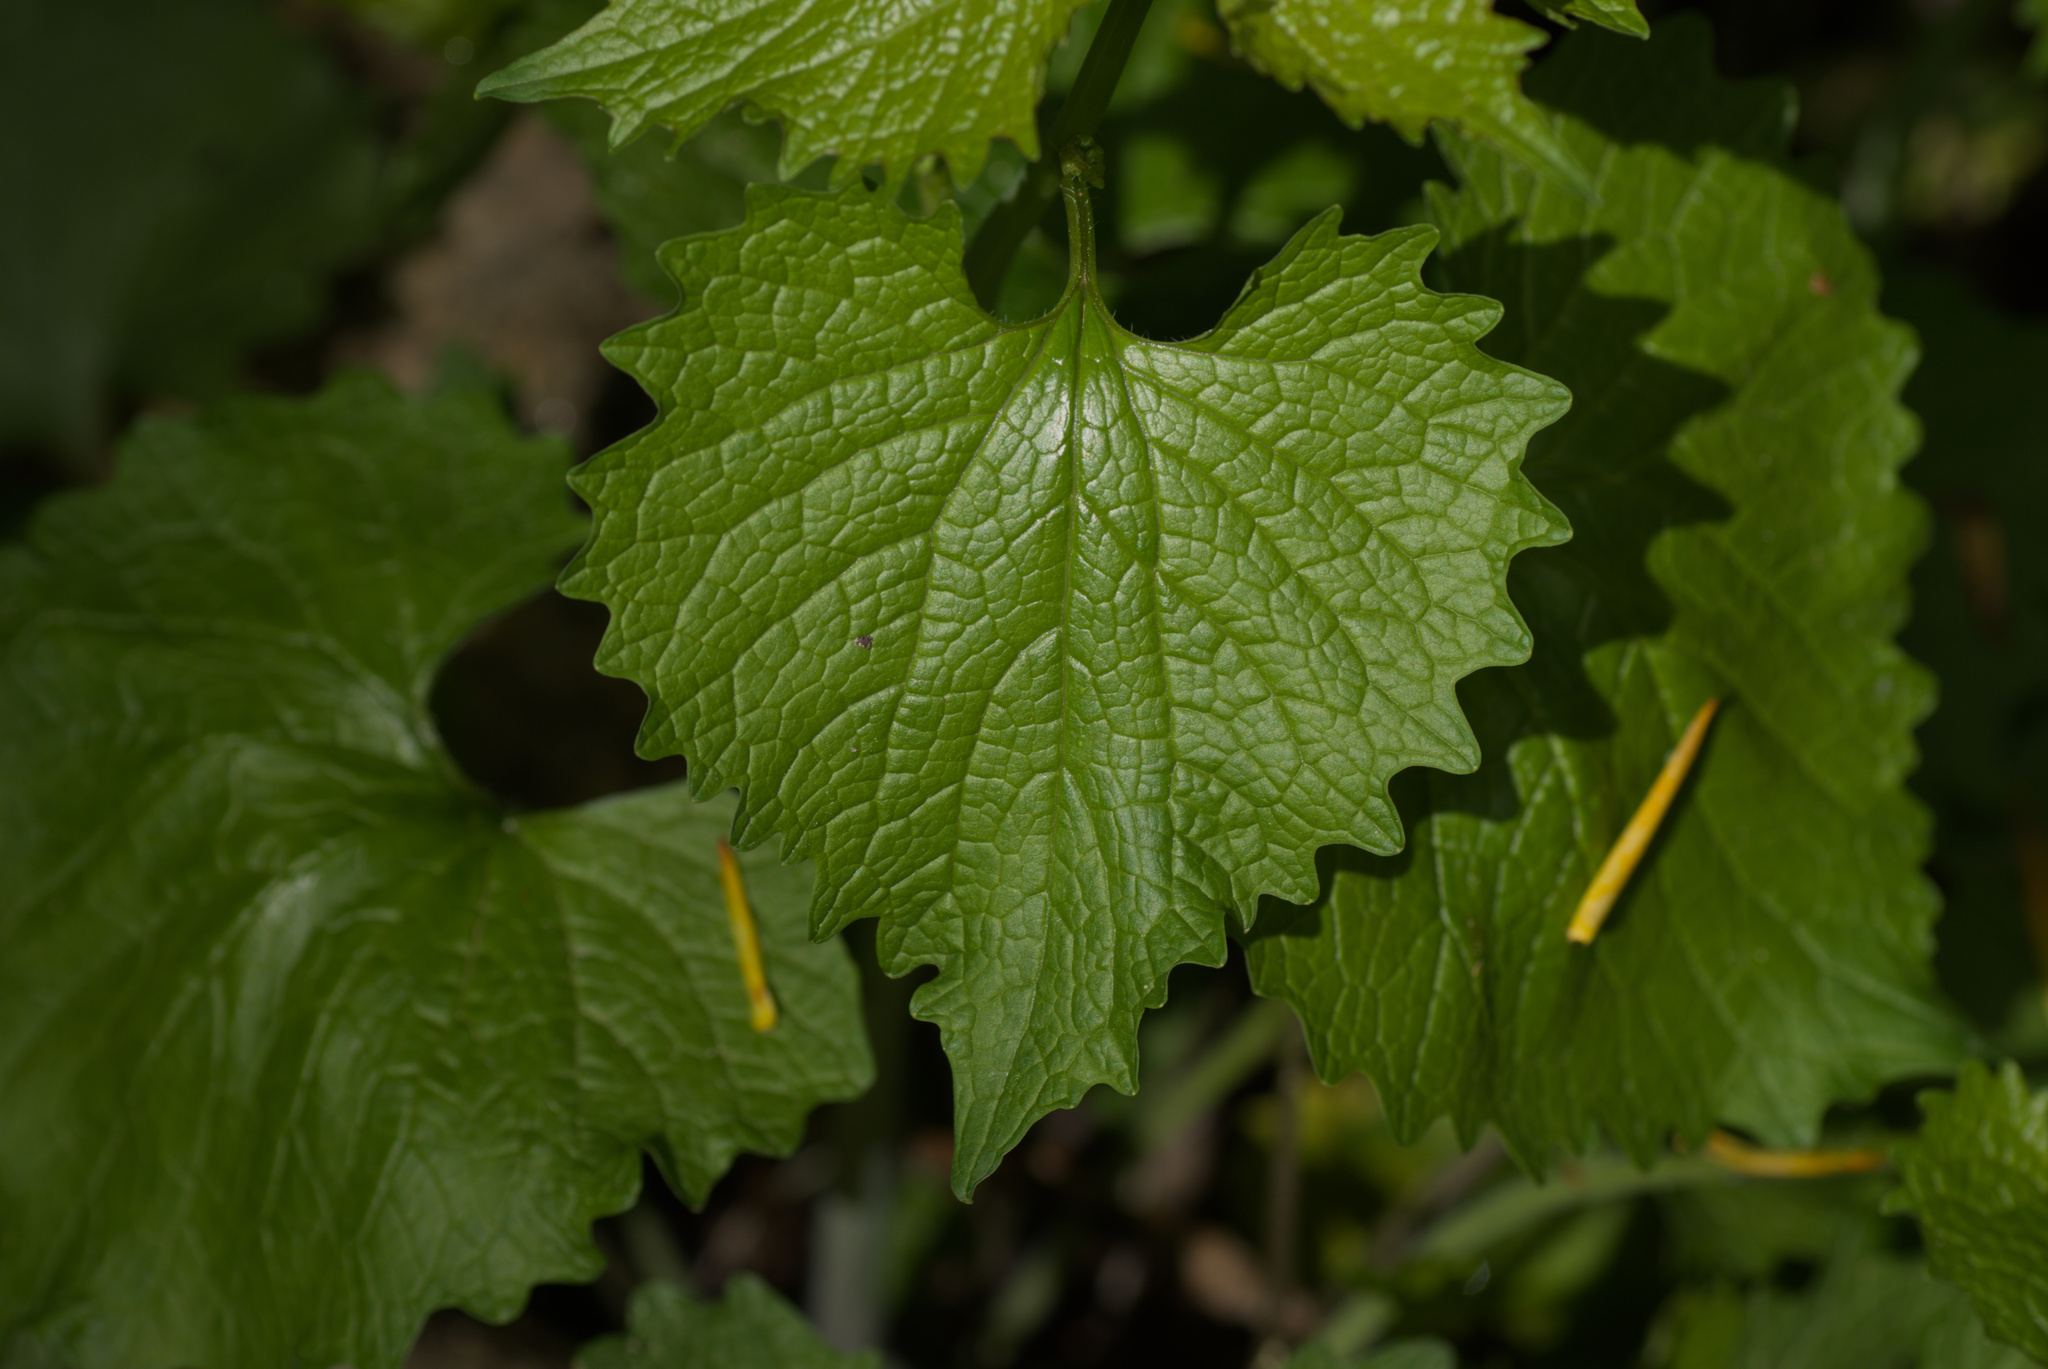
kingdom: Plantae
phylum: Tracheophyta
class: Magnoliopsida
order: Brassicales
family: Brassicaceae
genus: Alliaria
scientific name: Alliaria petiolata
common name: Garlic mustard
